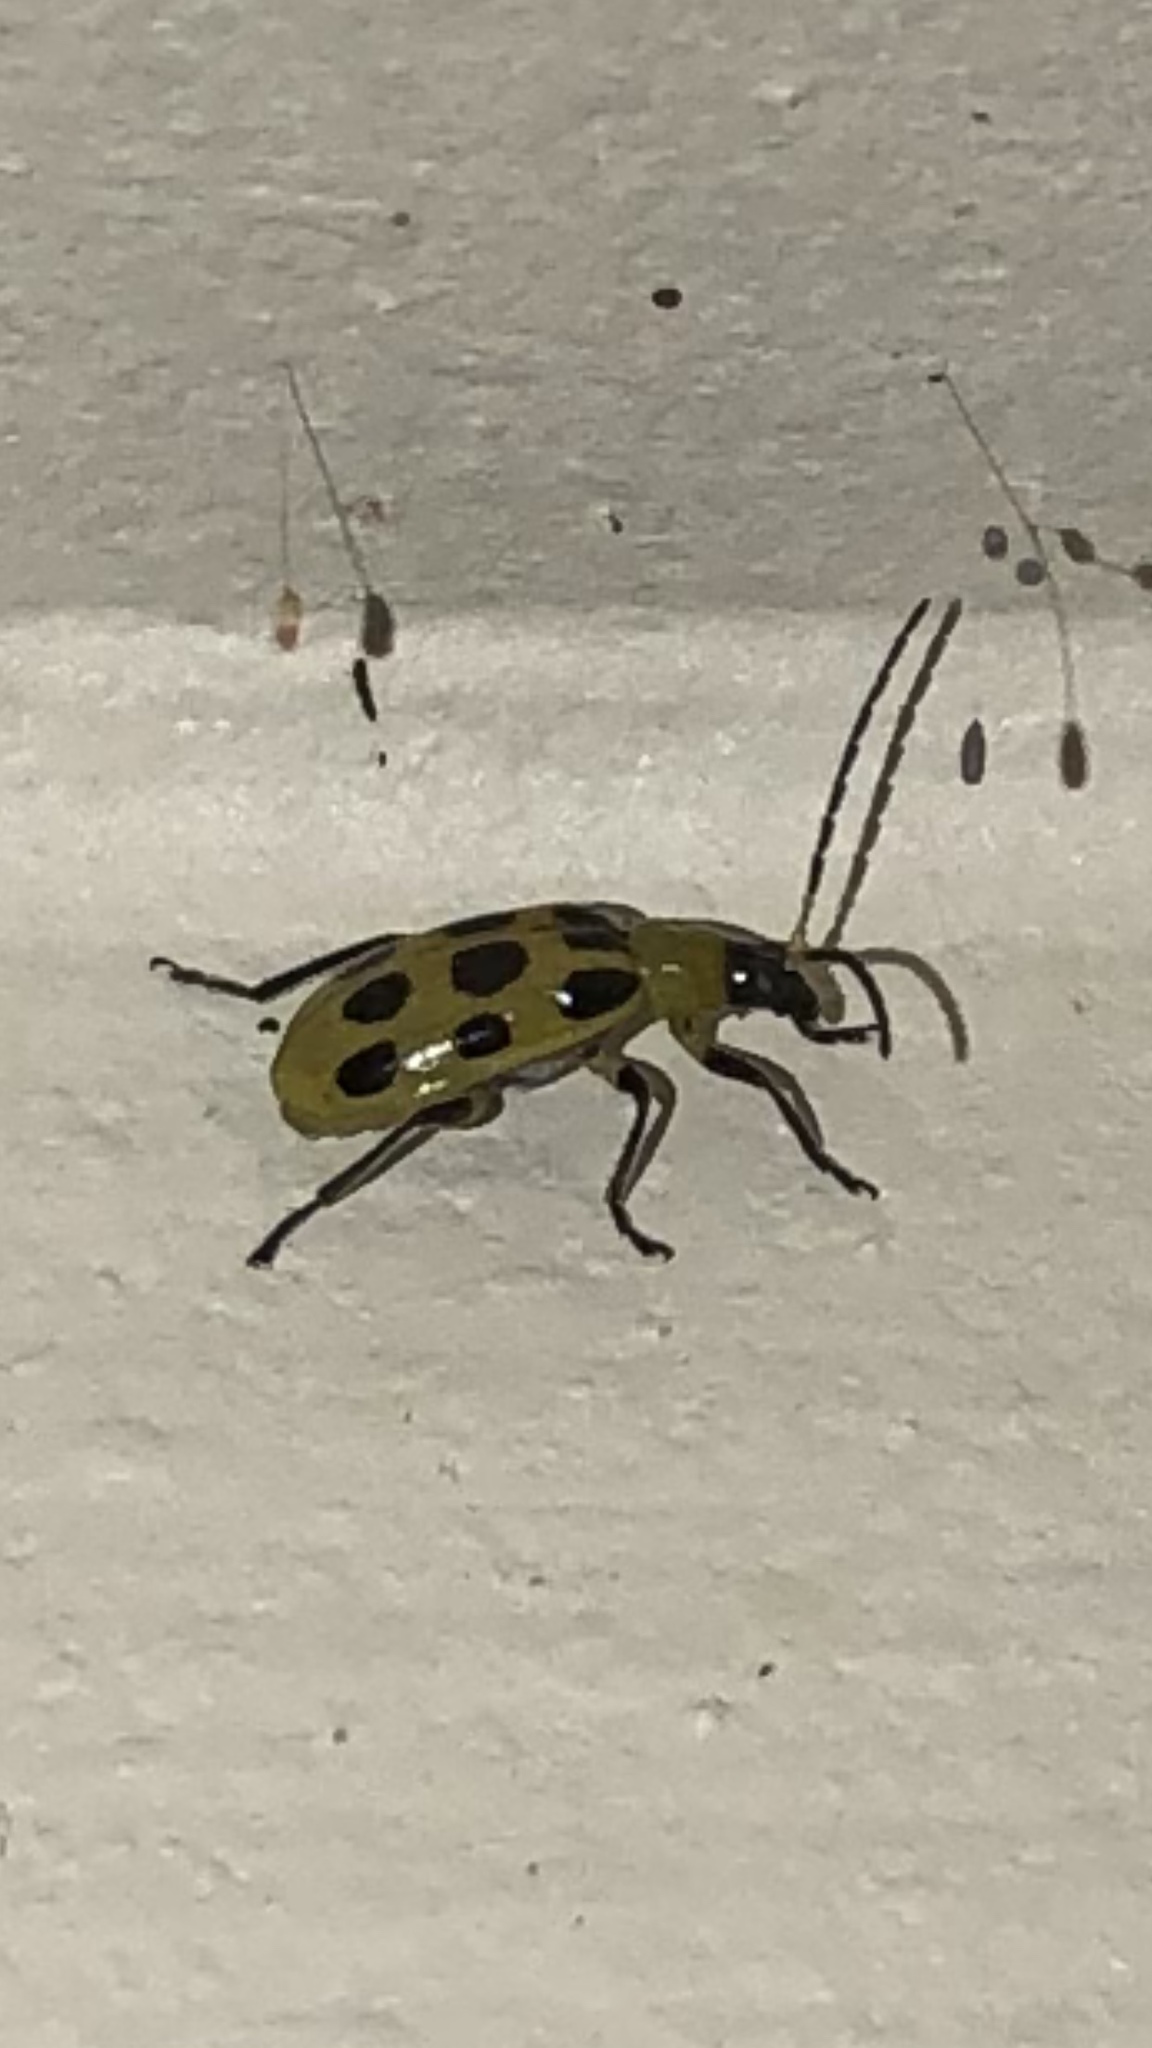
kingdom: Animalia
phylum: Arthropoda
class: Insecta
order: Coleoptera
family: Chrysomelidae
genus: Diabrotica
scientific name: Diabrotica undecimpunctata
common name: Spotted cucumber beetle
